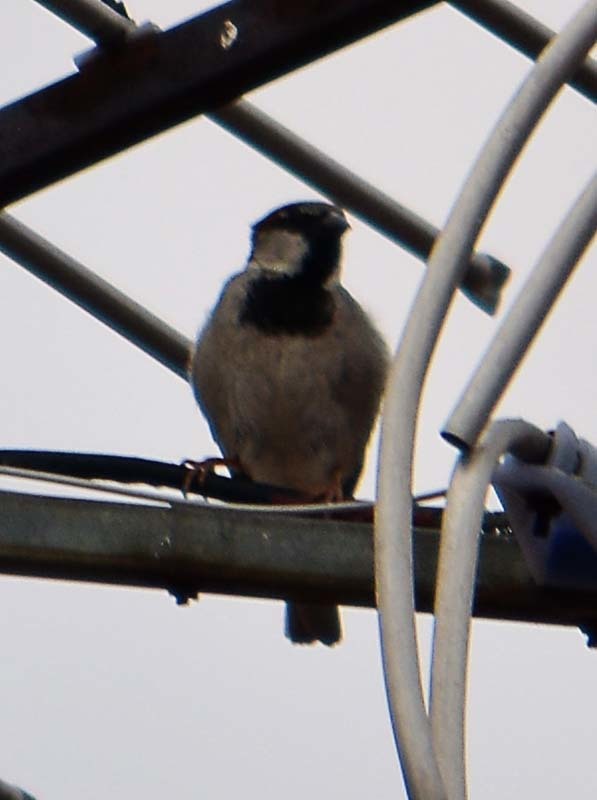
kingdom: Animalia
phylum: Chordata
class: Aves
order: Passeriformes
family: Passeridae
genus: Passer
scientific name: Passer domesticus
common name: House sparrow
